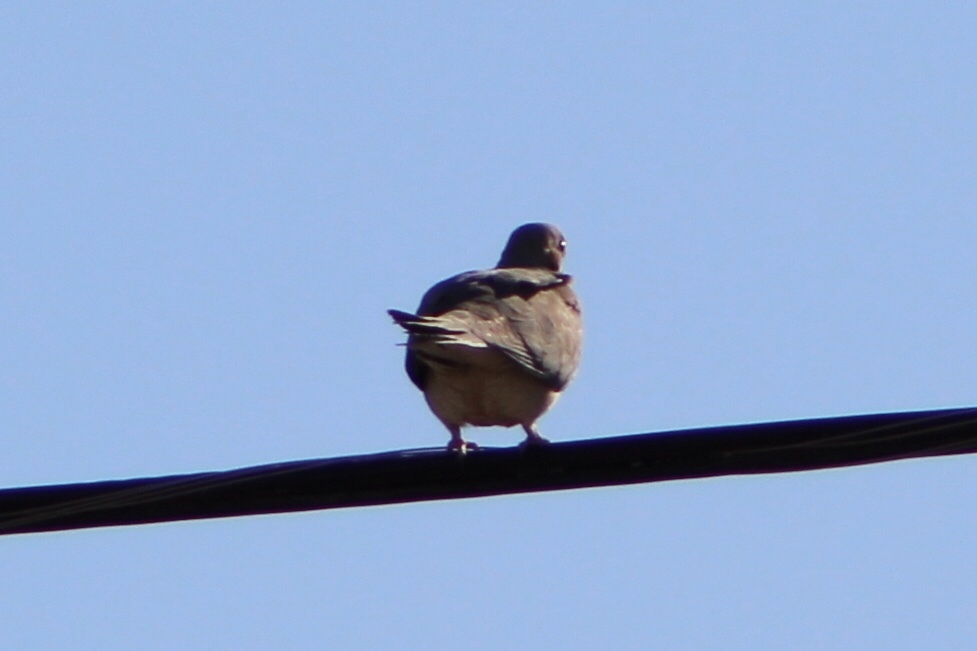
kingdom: Animalia
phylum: Chordata
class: Aves
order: Columbiformes
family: Columbidae
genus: Zenaida
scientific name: Zenaida macroura
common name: Mourning dove
